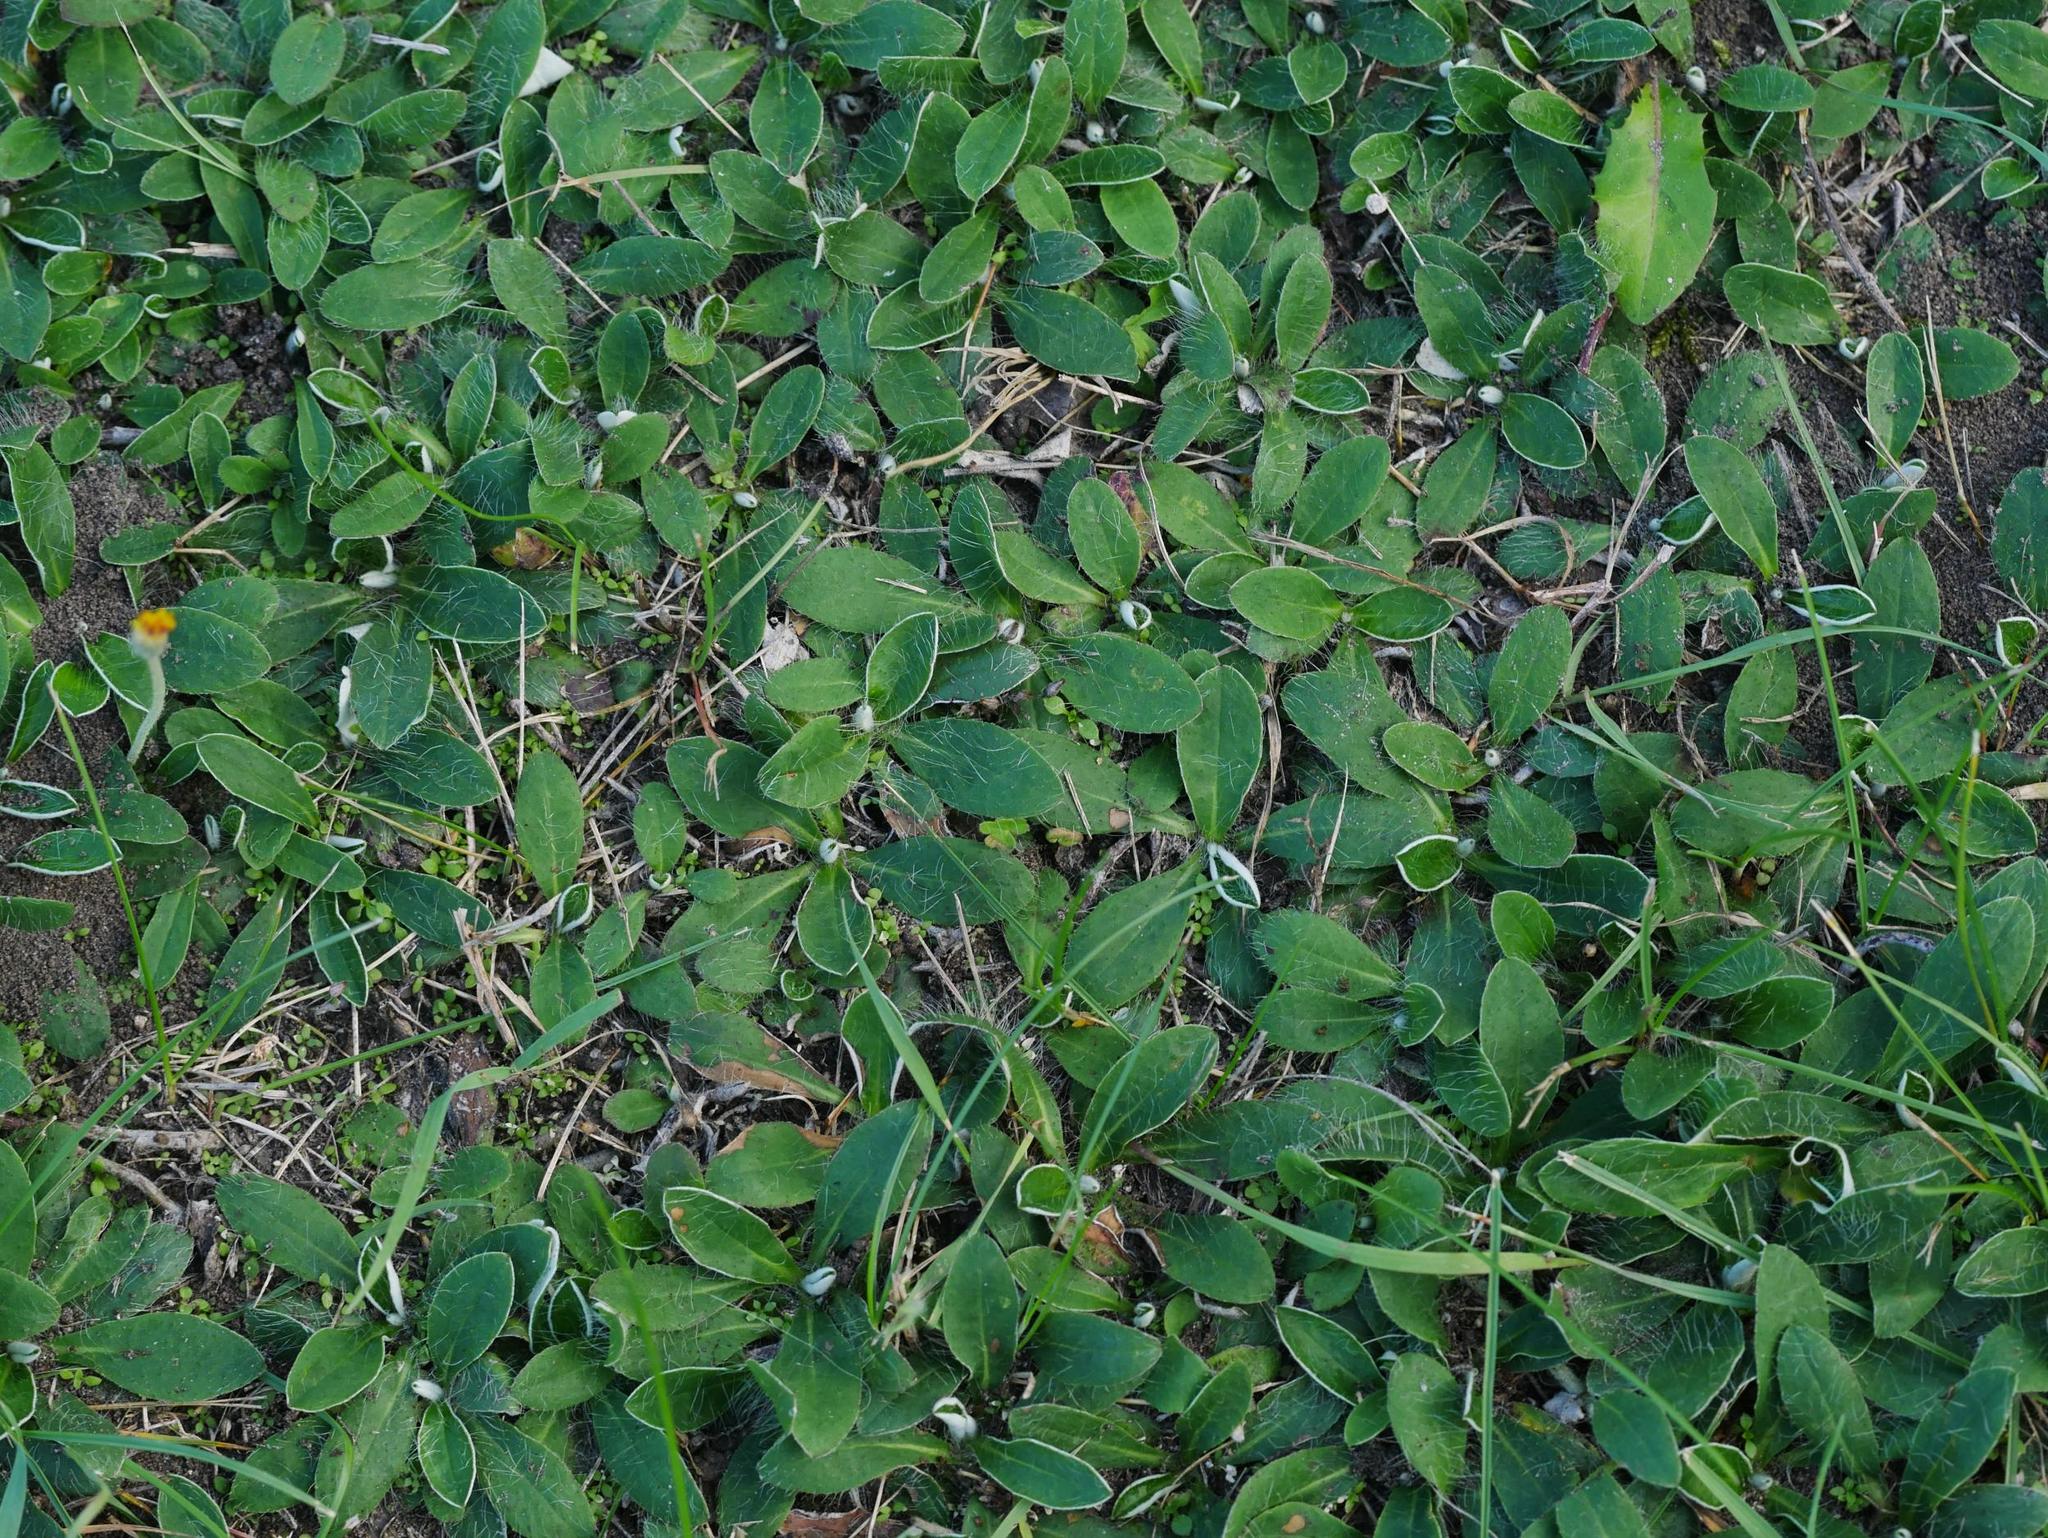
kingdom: Plantae
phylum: Tracheophyta
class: Magnoliopsida
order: Asterales
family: Asteraceae
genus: Pilosella
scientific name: Pilosella officinarum
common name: Mouse-ear hawkweed
